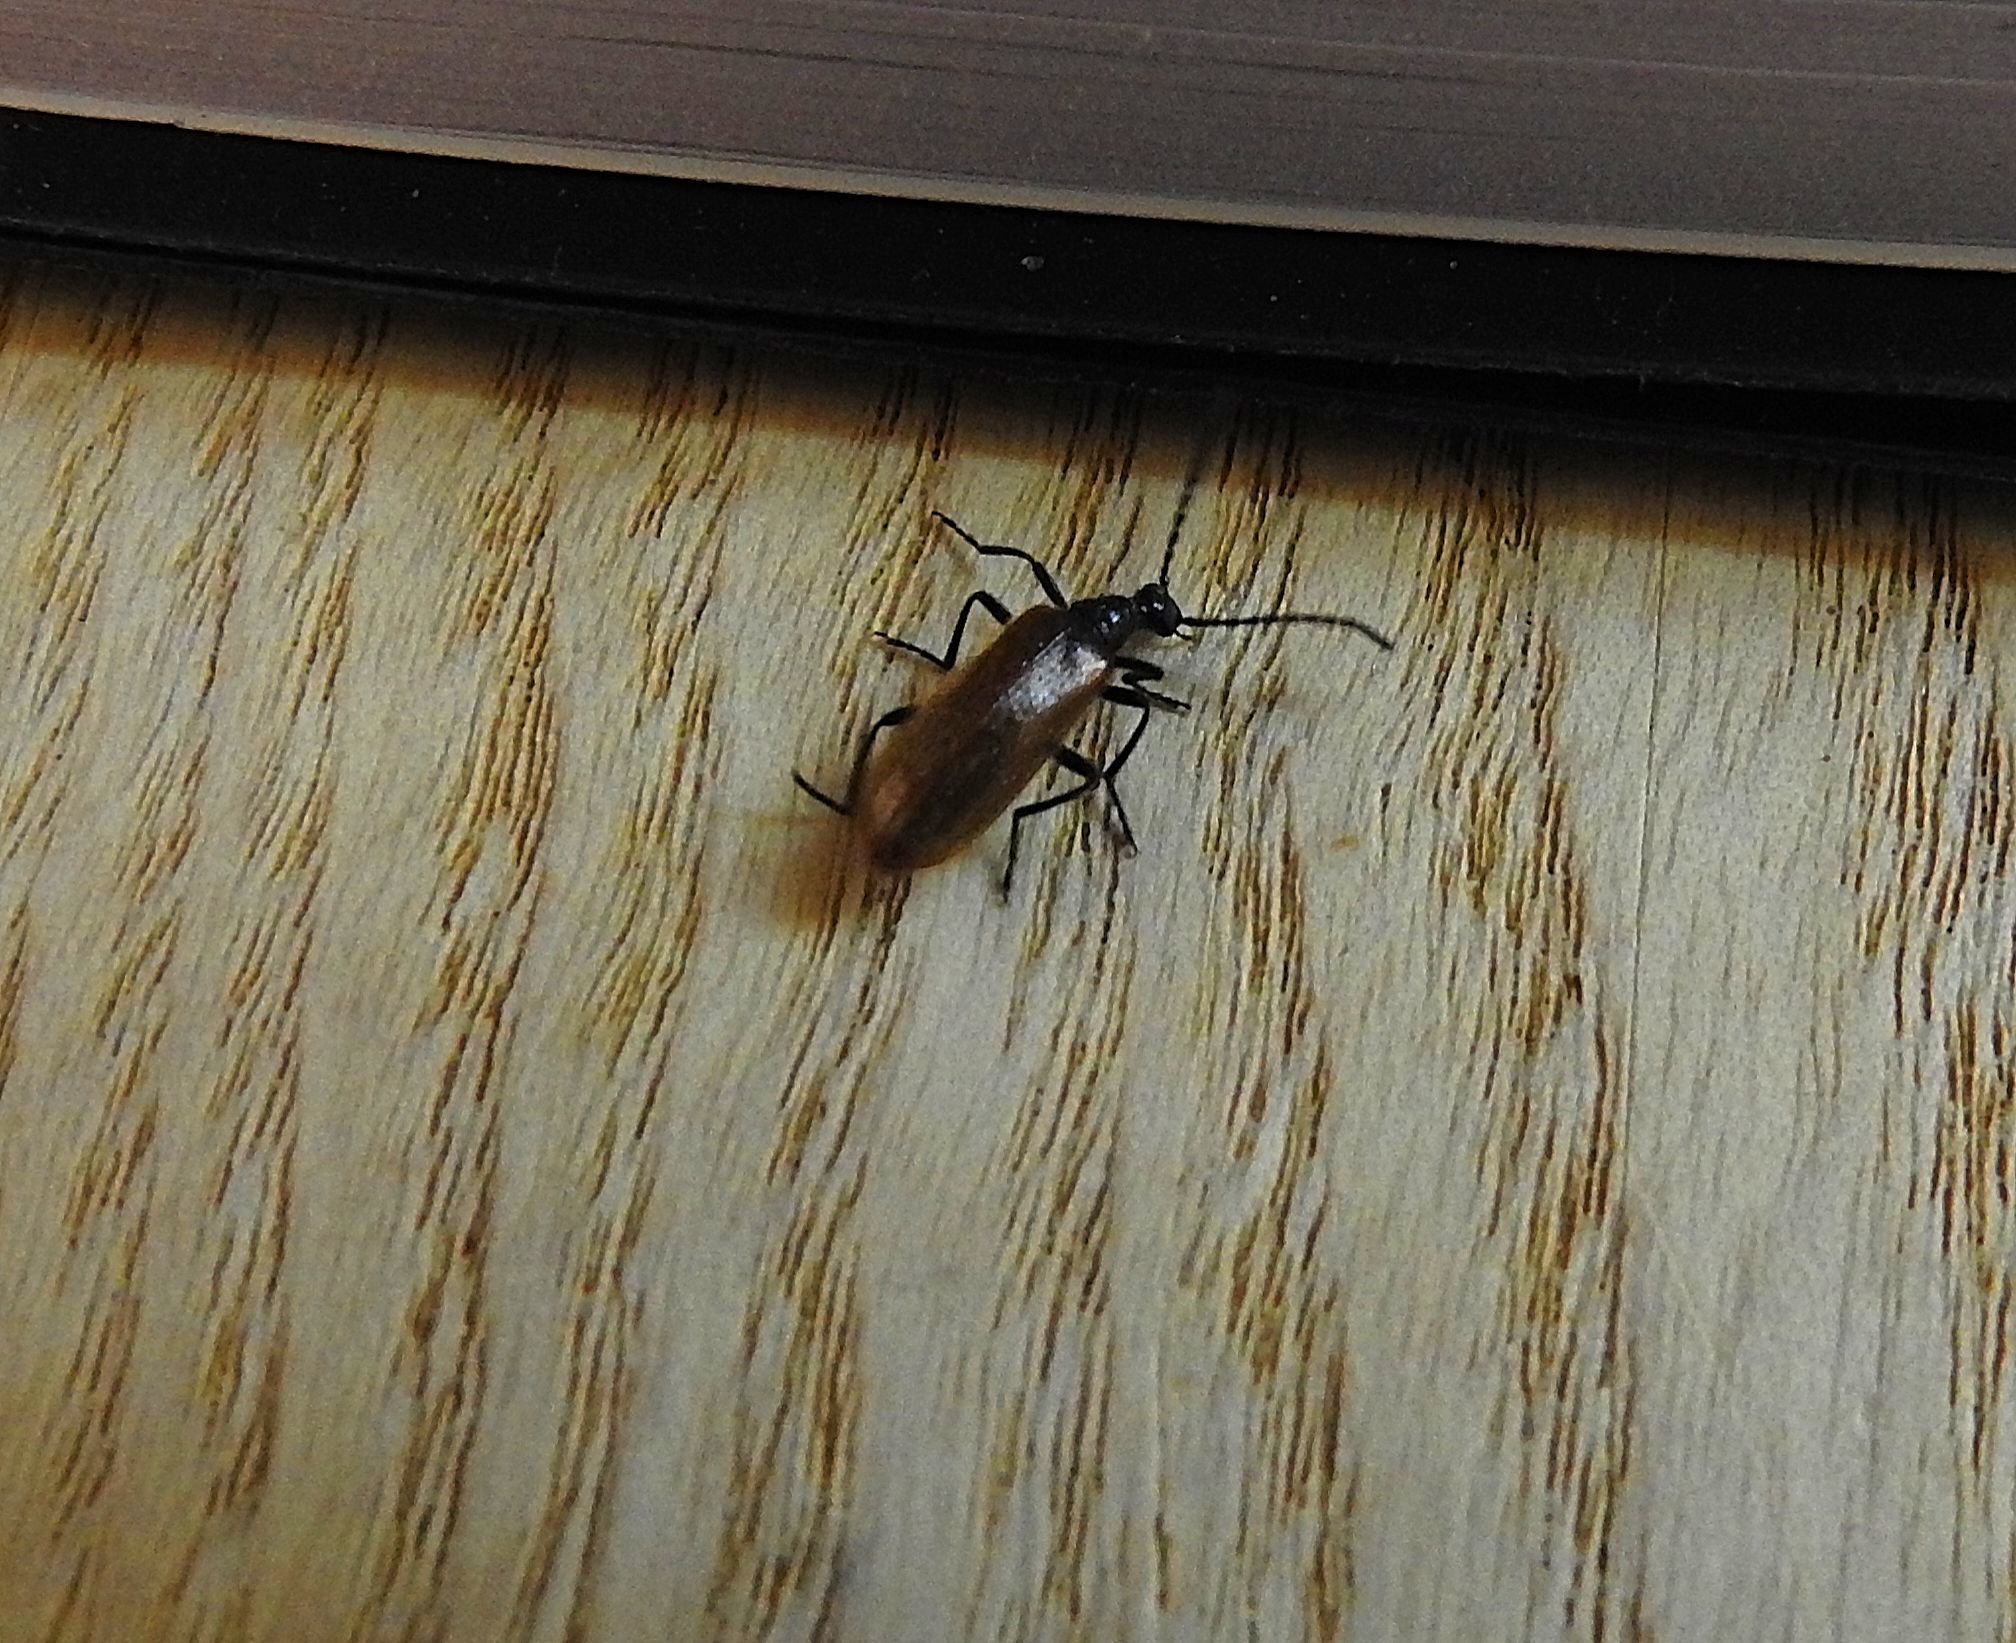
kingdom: Animalia
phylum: Arthropoda
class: Insecta
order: Coleoptera
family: Tenebrionidae
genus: Lagria
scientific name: Lagria hirta
